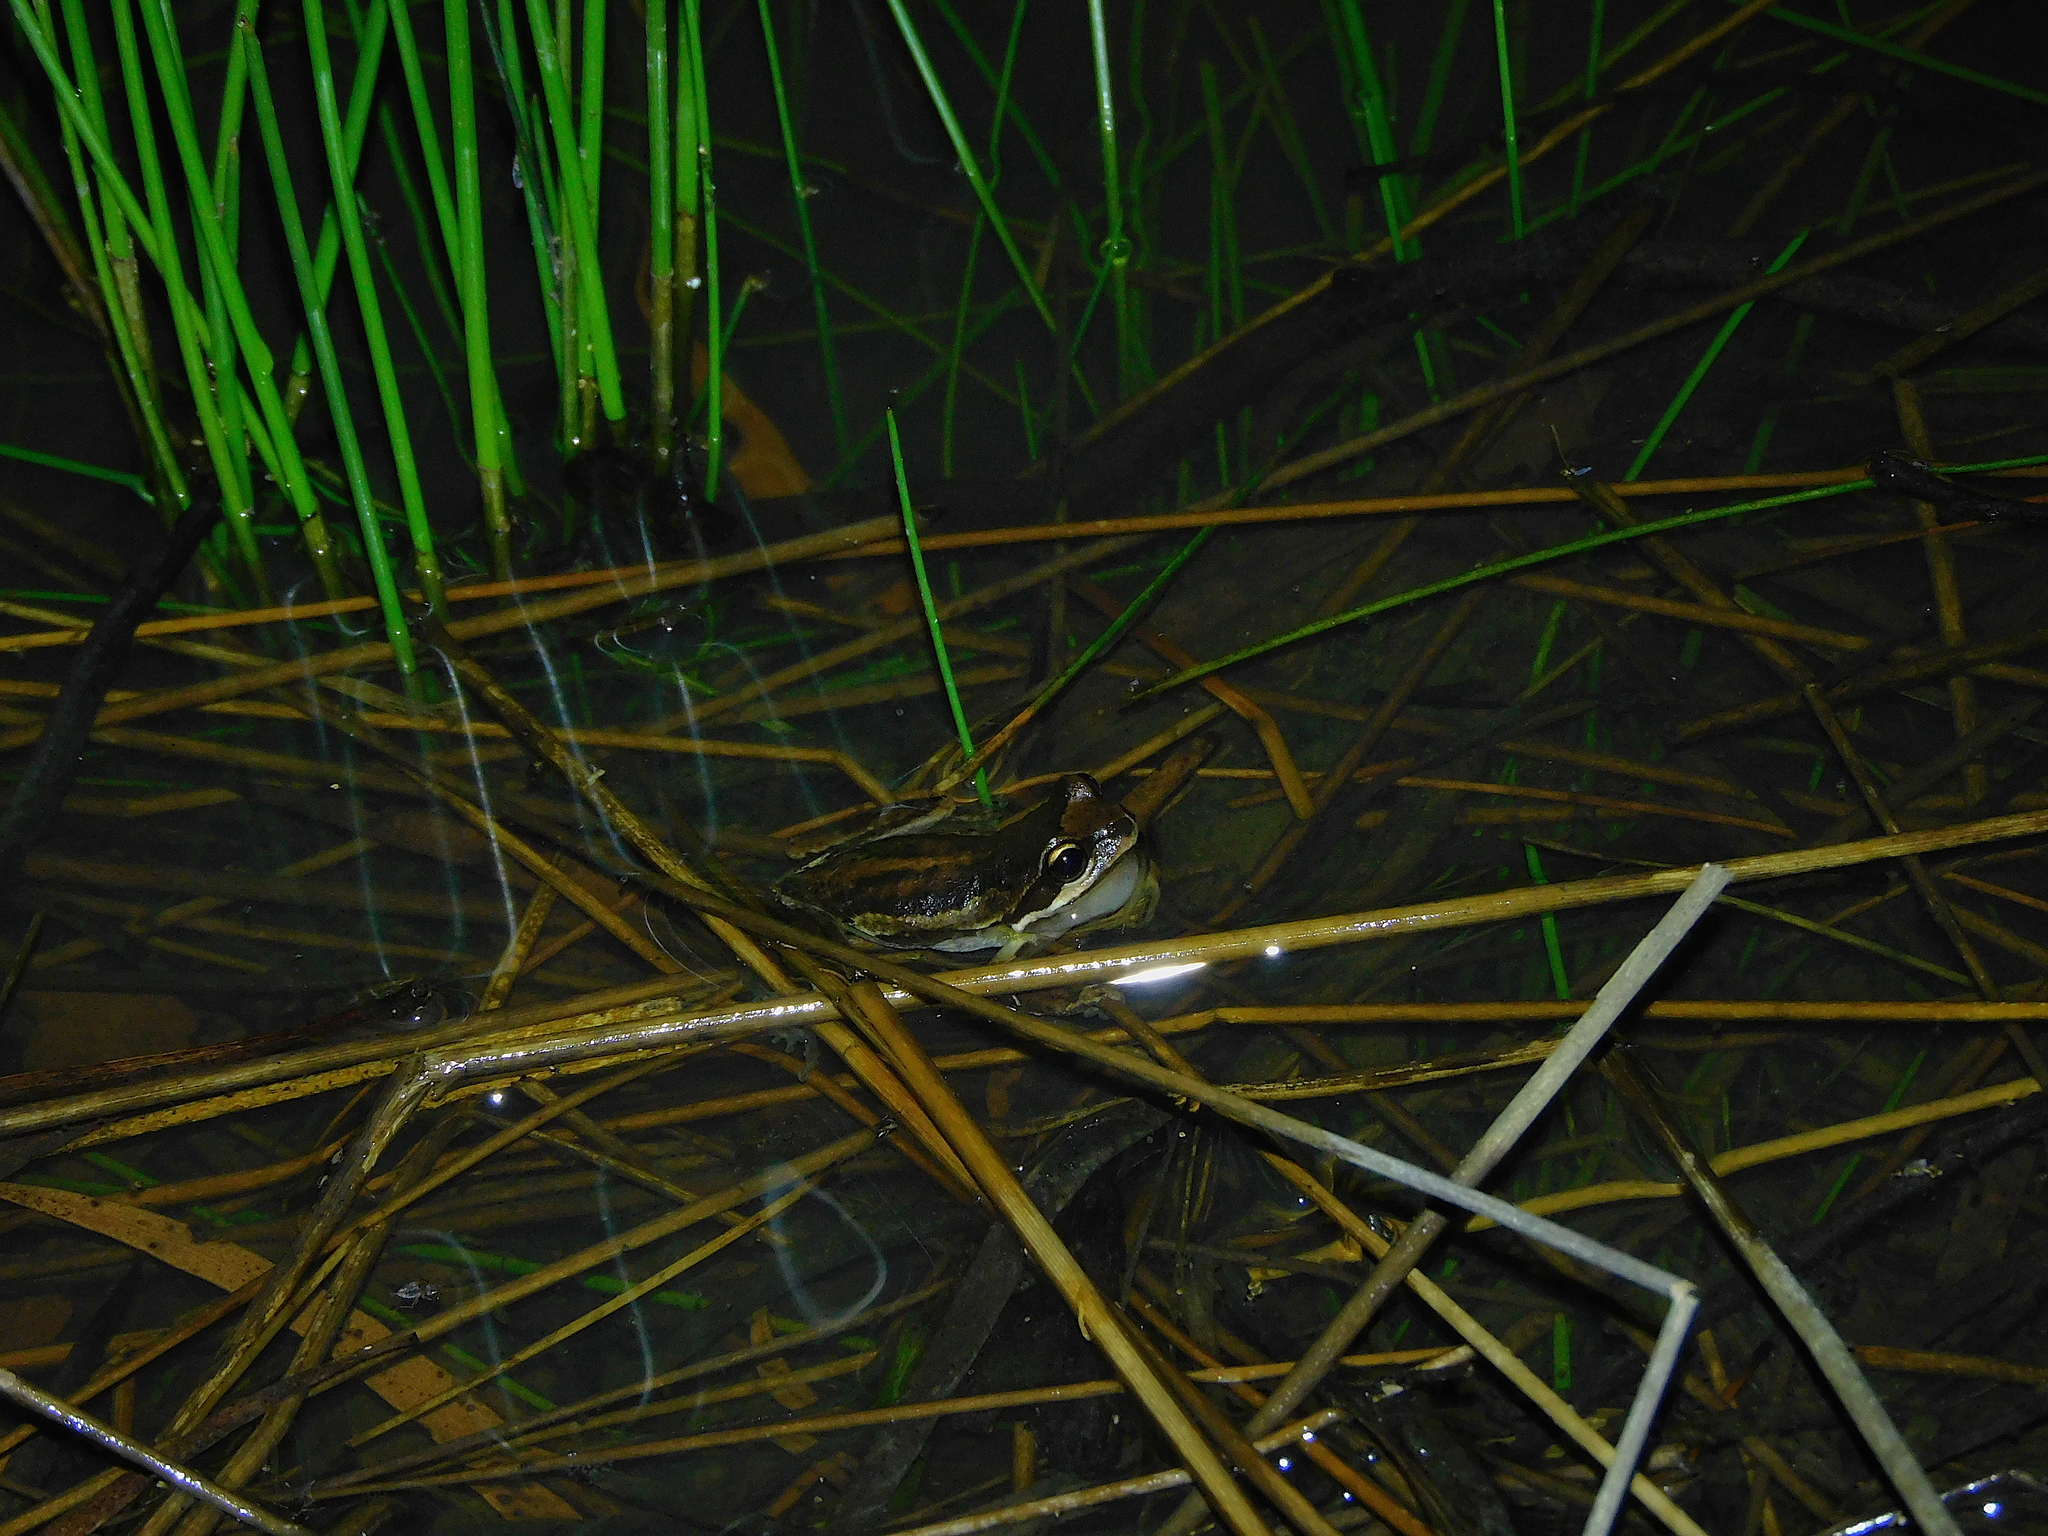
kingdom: Animalia
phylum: Chordata
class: Amphibia
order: Anura
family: Pelodryadidae
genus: Litoria
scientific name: Litoria ewingii
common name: Southern brown tree frog
